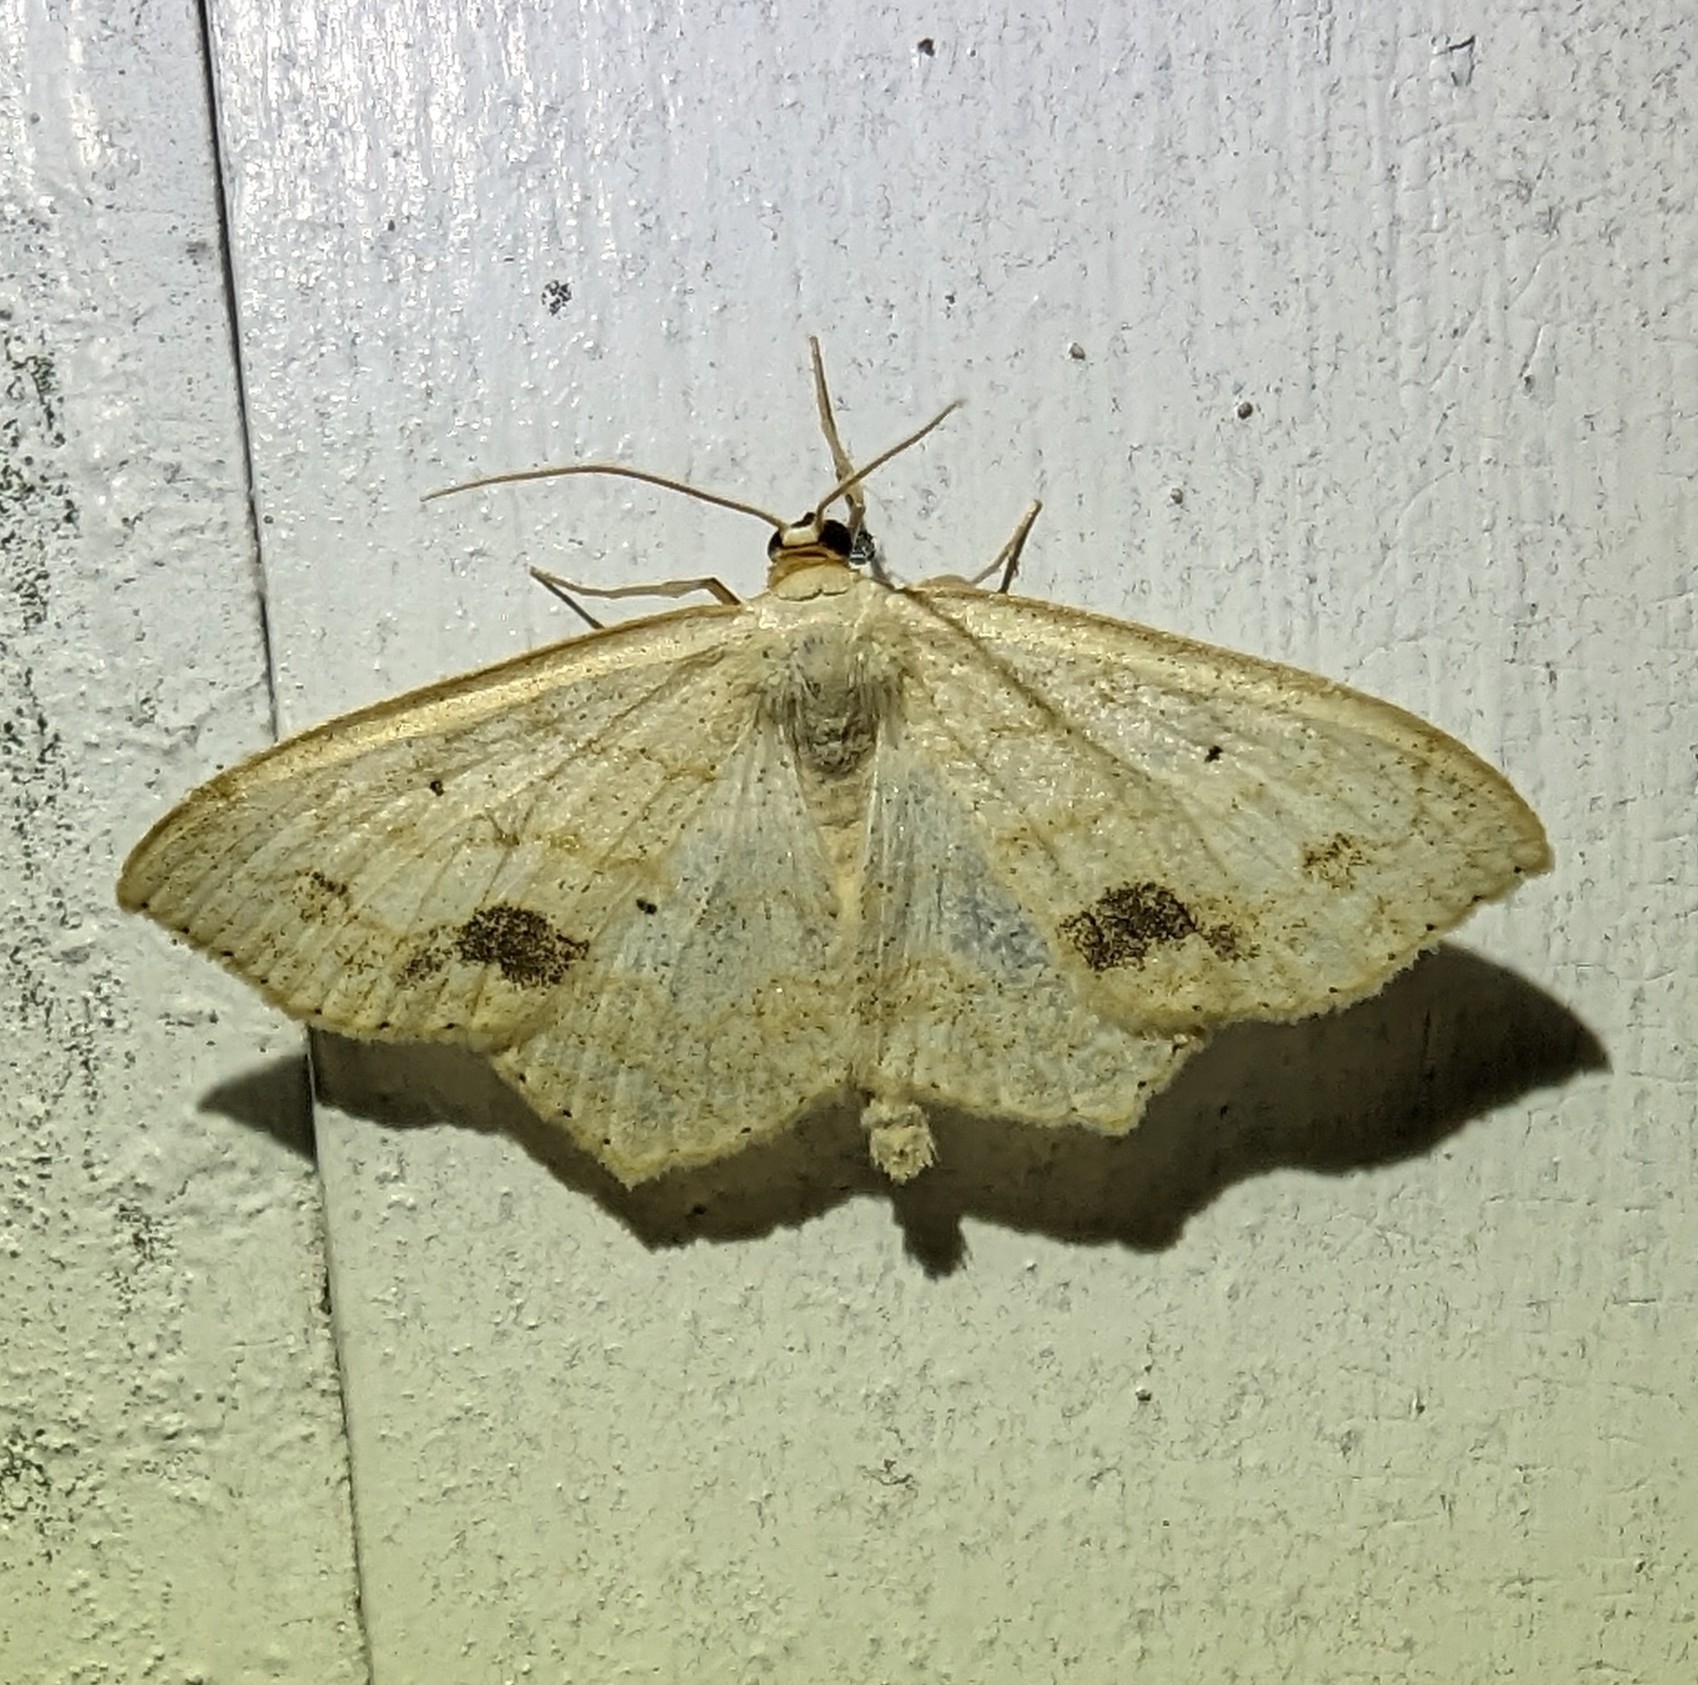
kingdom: Animalia
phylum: Arthropoda
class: Insecta
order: Lepidoptera
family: Geometridae
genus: Scopula
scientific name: Scopula limboundata
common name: Large lace border
